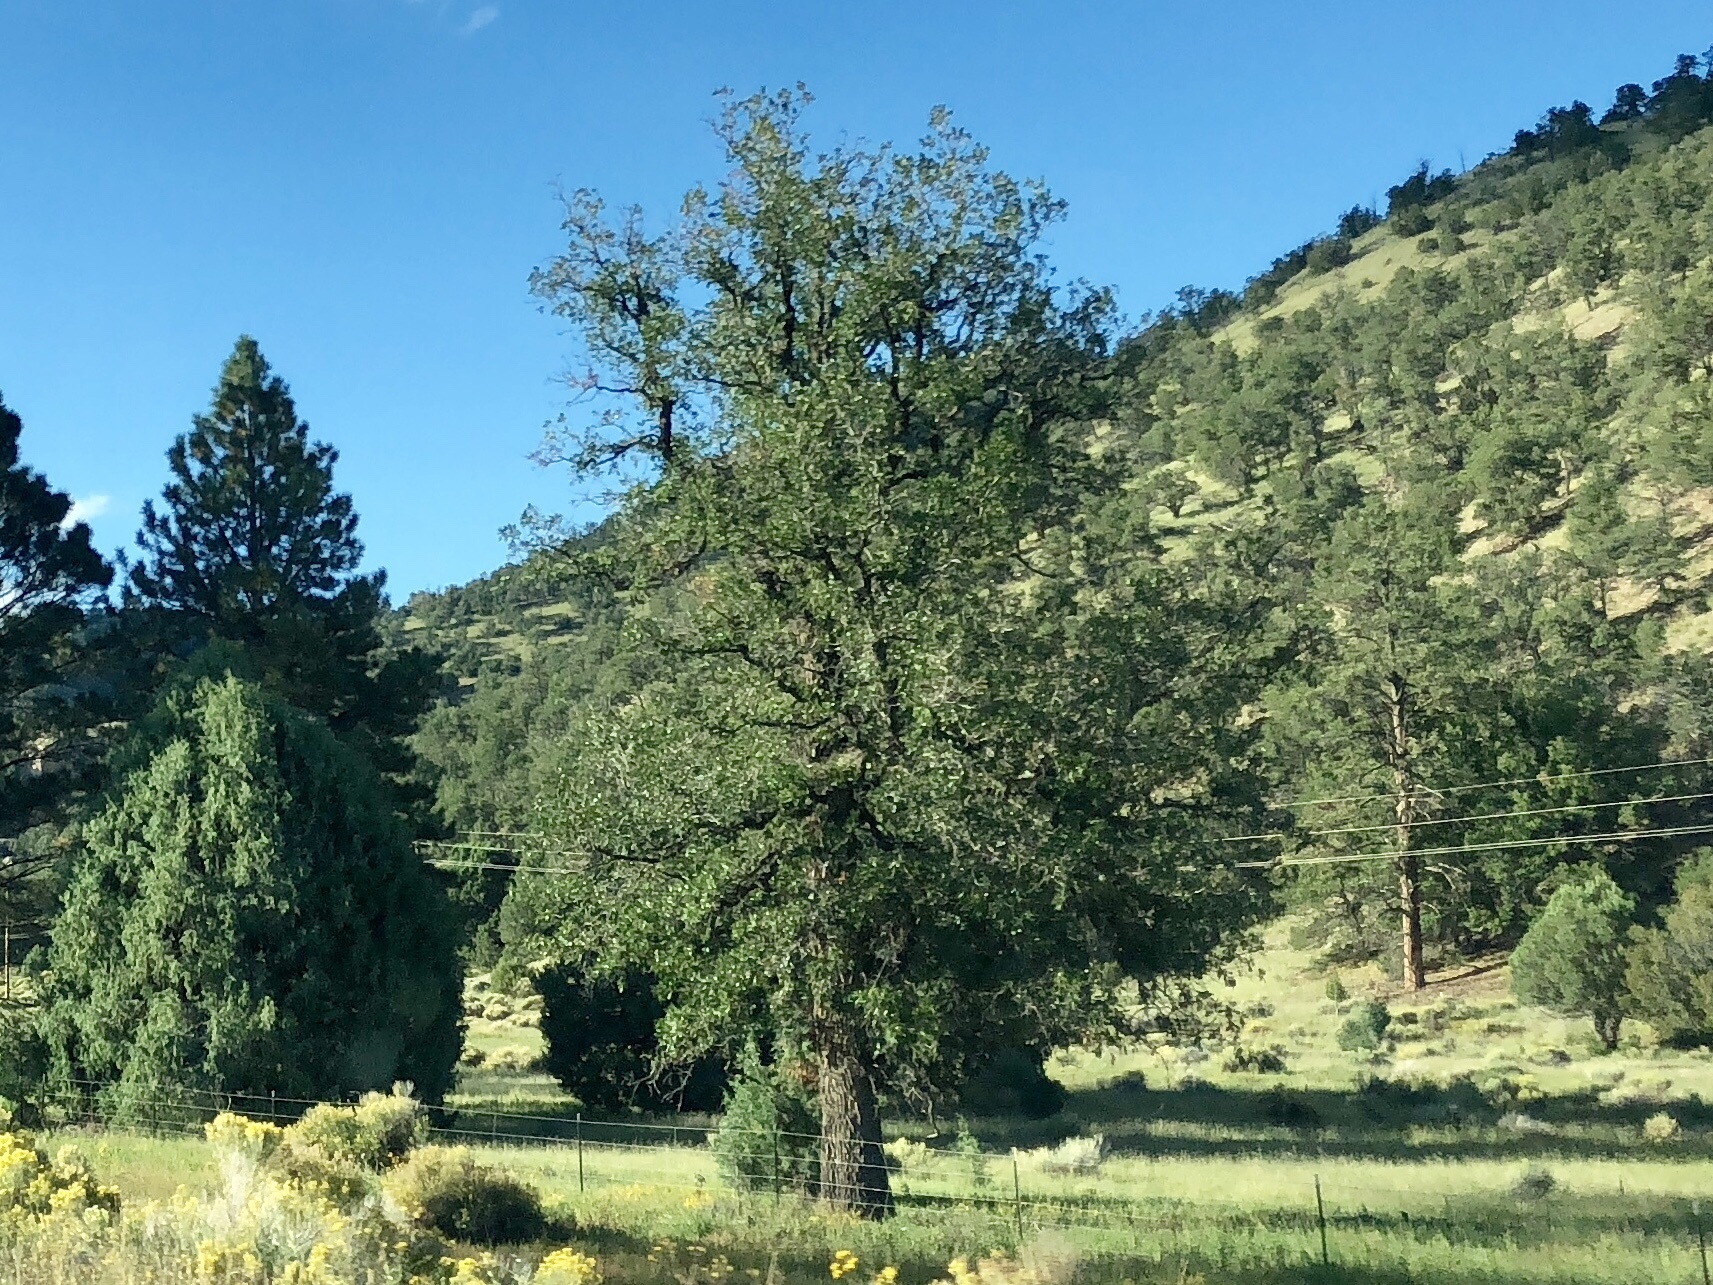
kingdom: Plantae
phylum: Tracheophyta
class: Magnoliopsida
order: Fagales
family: Fagaceae
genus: Quercus
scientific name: Quercus gambelii
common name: Gambel oak
